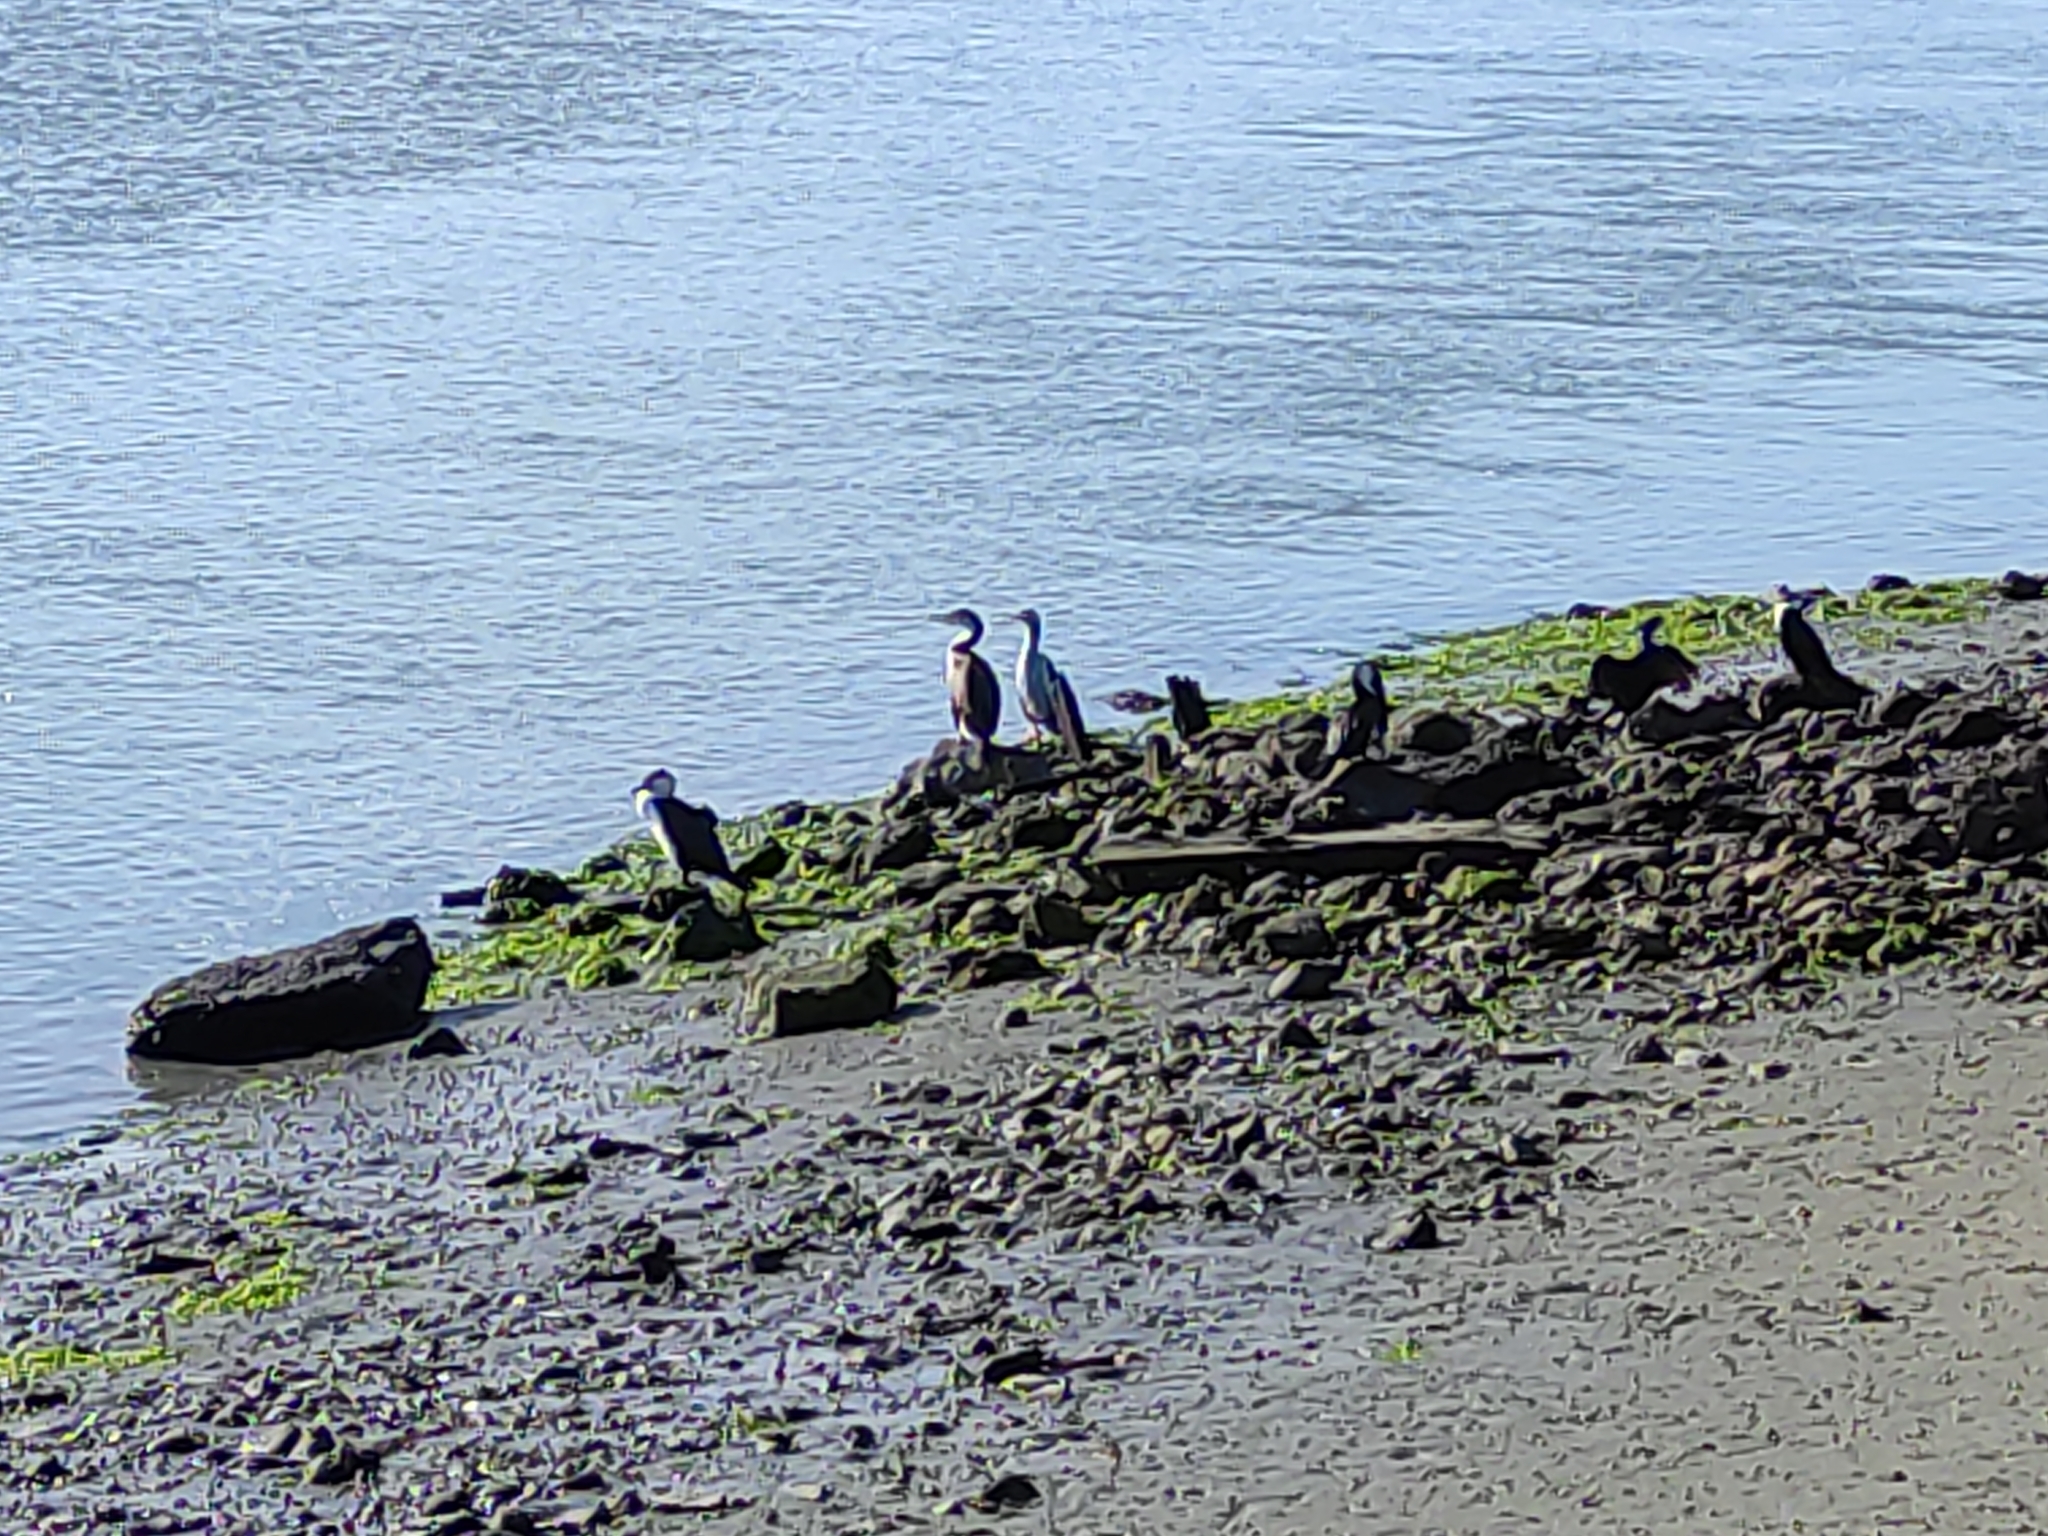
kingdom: Animalia
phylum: Chordata
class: Aves
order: Suliformes
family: Phalacrocoracidae
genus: Microcarbo
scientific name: Microcarbo melanoleucos
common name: Little pied cormorant
